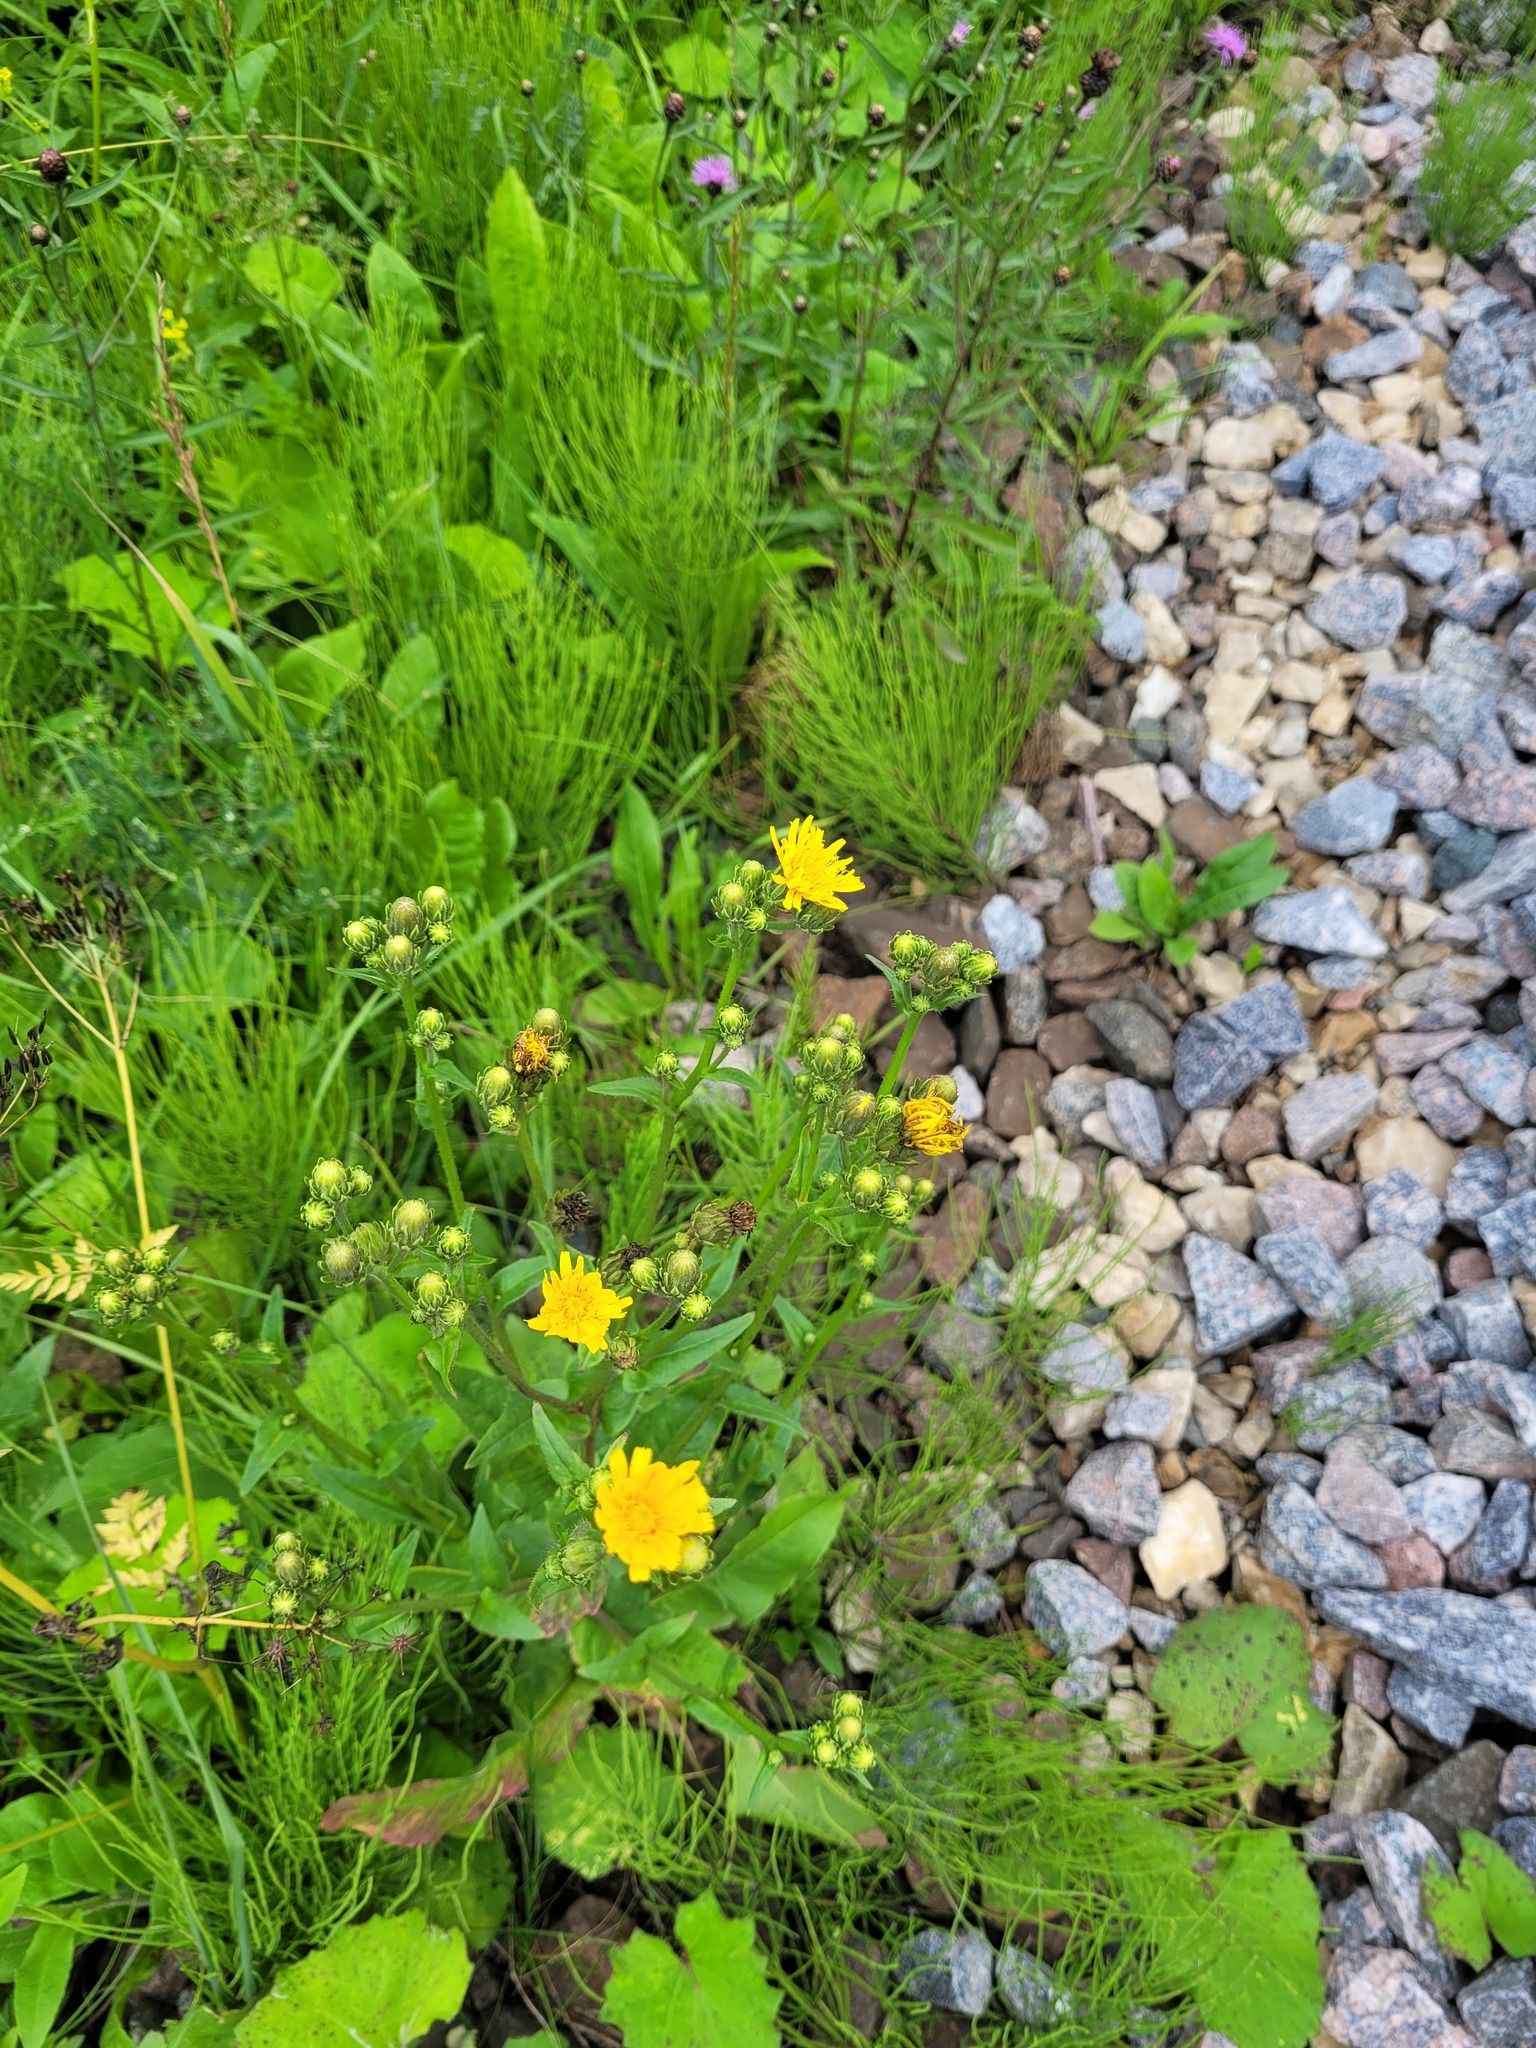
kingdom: Plantae
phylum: Tracheophyta
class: Magnoliopsida
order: Asterales
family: Asteraceae
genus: Picris
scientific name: Picris hieracioides
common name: Hawkweed oxtongue
